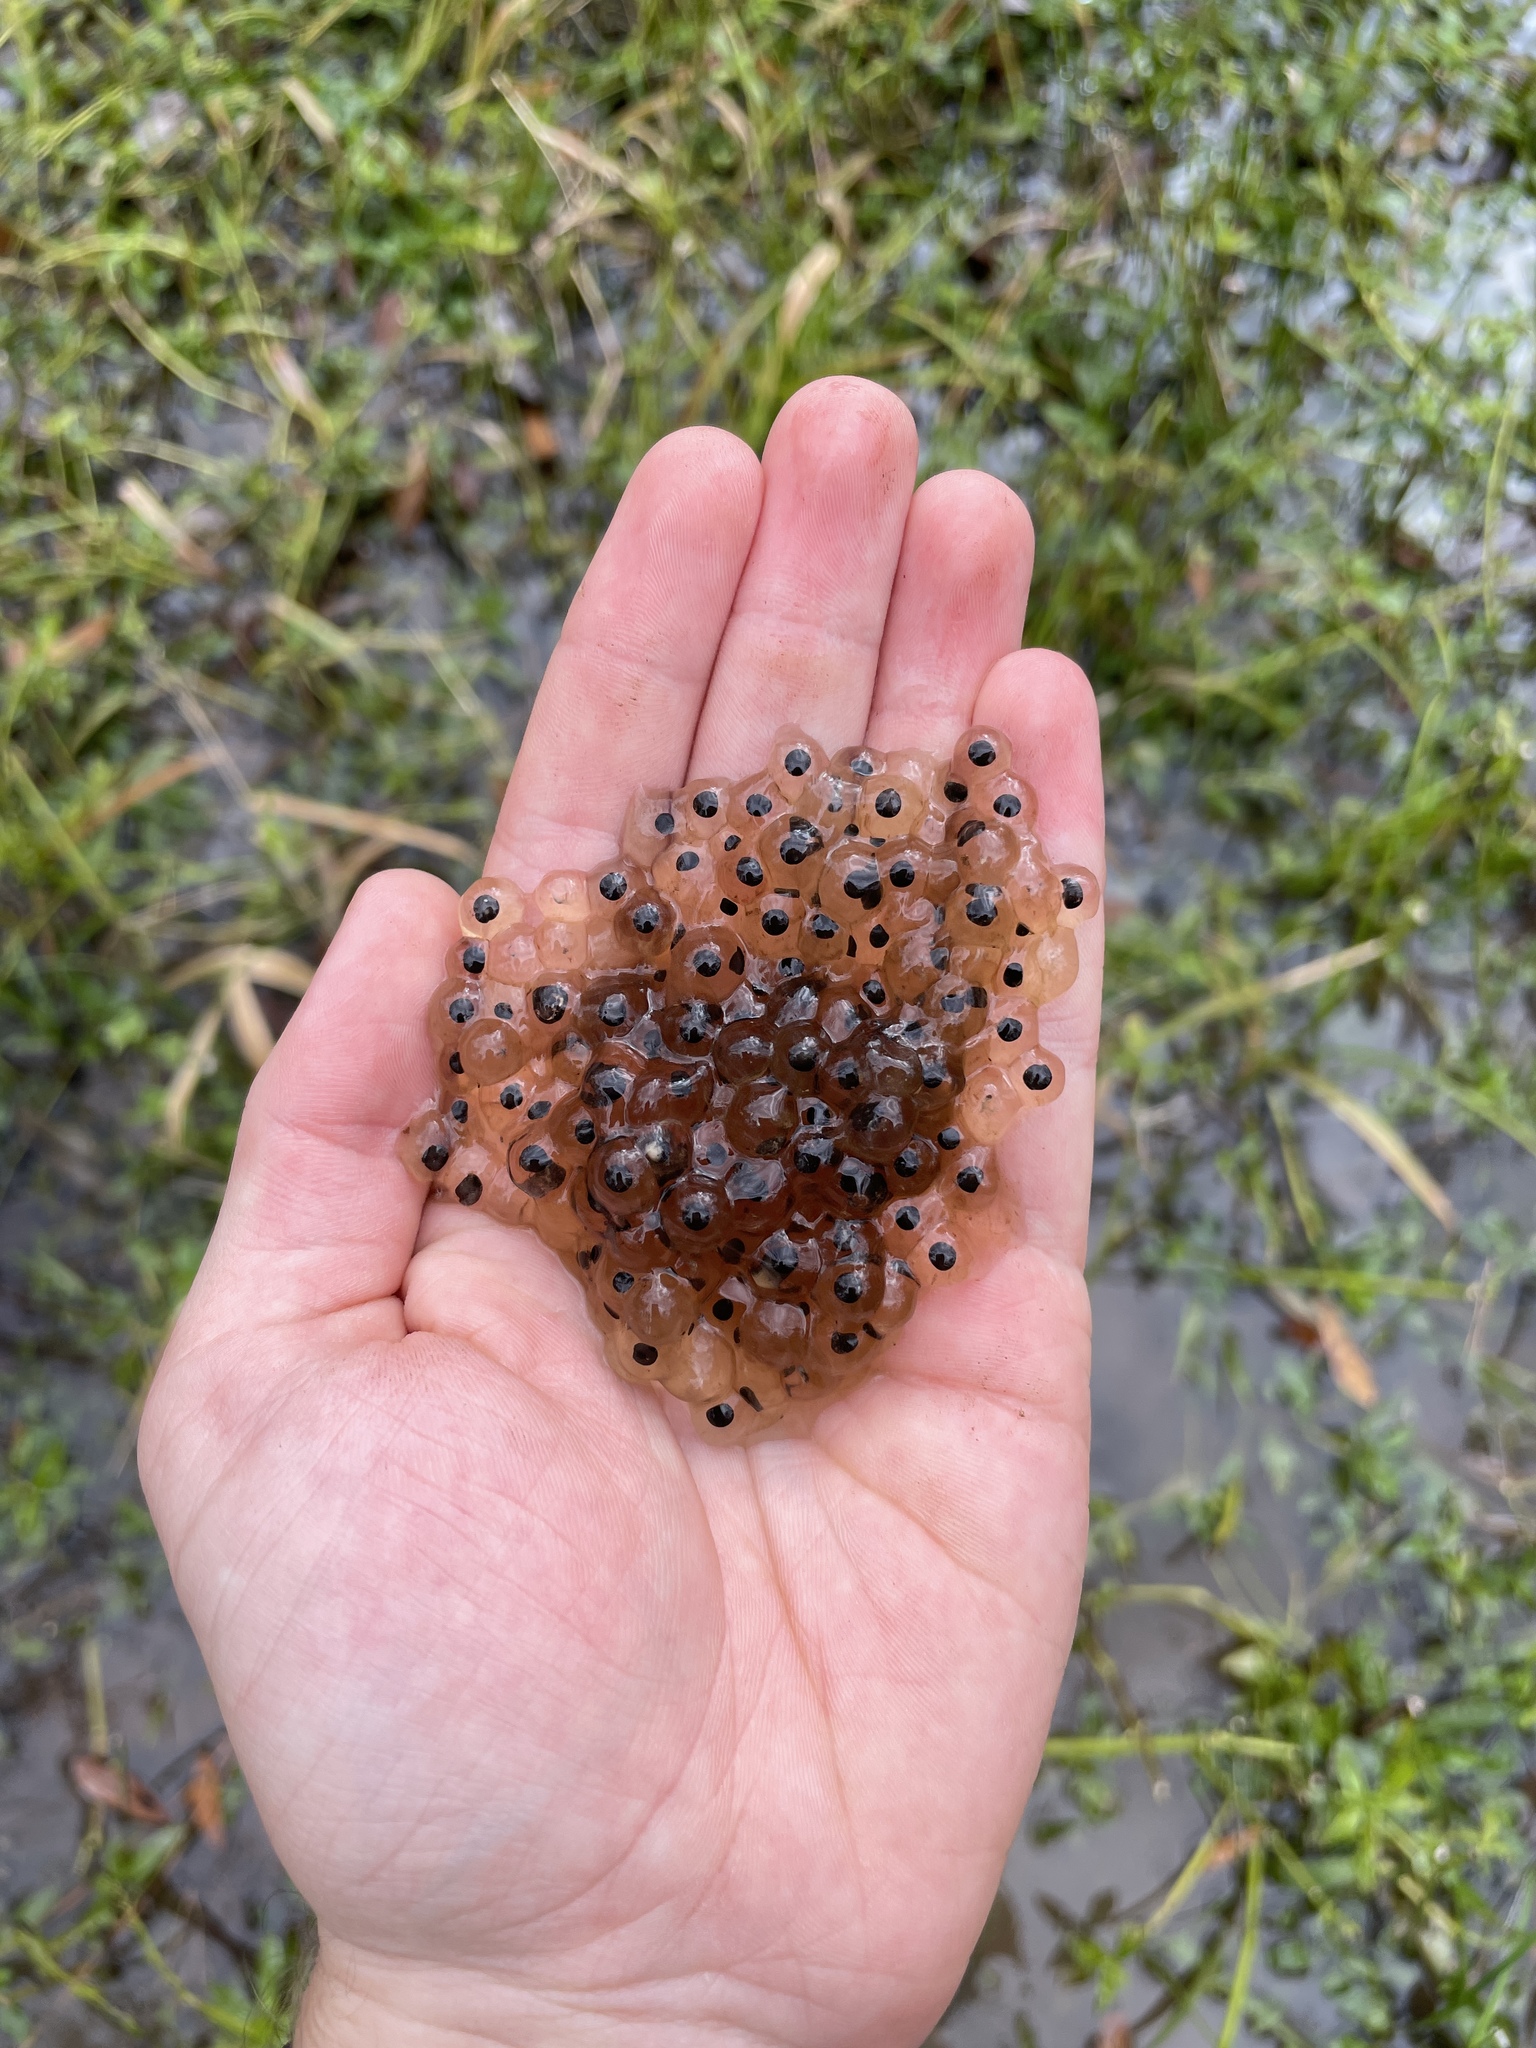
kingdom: Animalia
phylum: Chordata
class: Amphibia
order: Anura
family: Ranidae
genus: Lithobates
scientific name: Lithobates sphenocephalus
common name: Southern leopard frog
